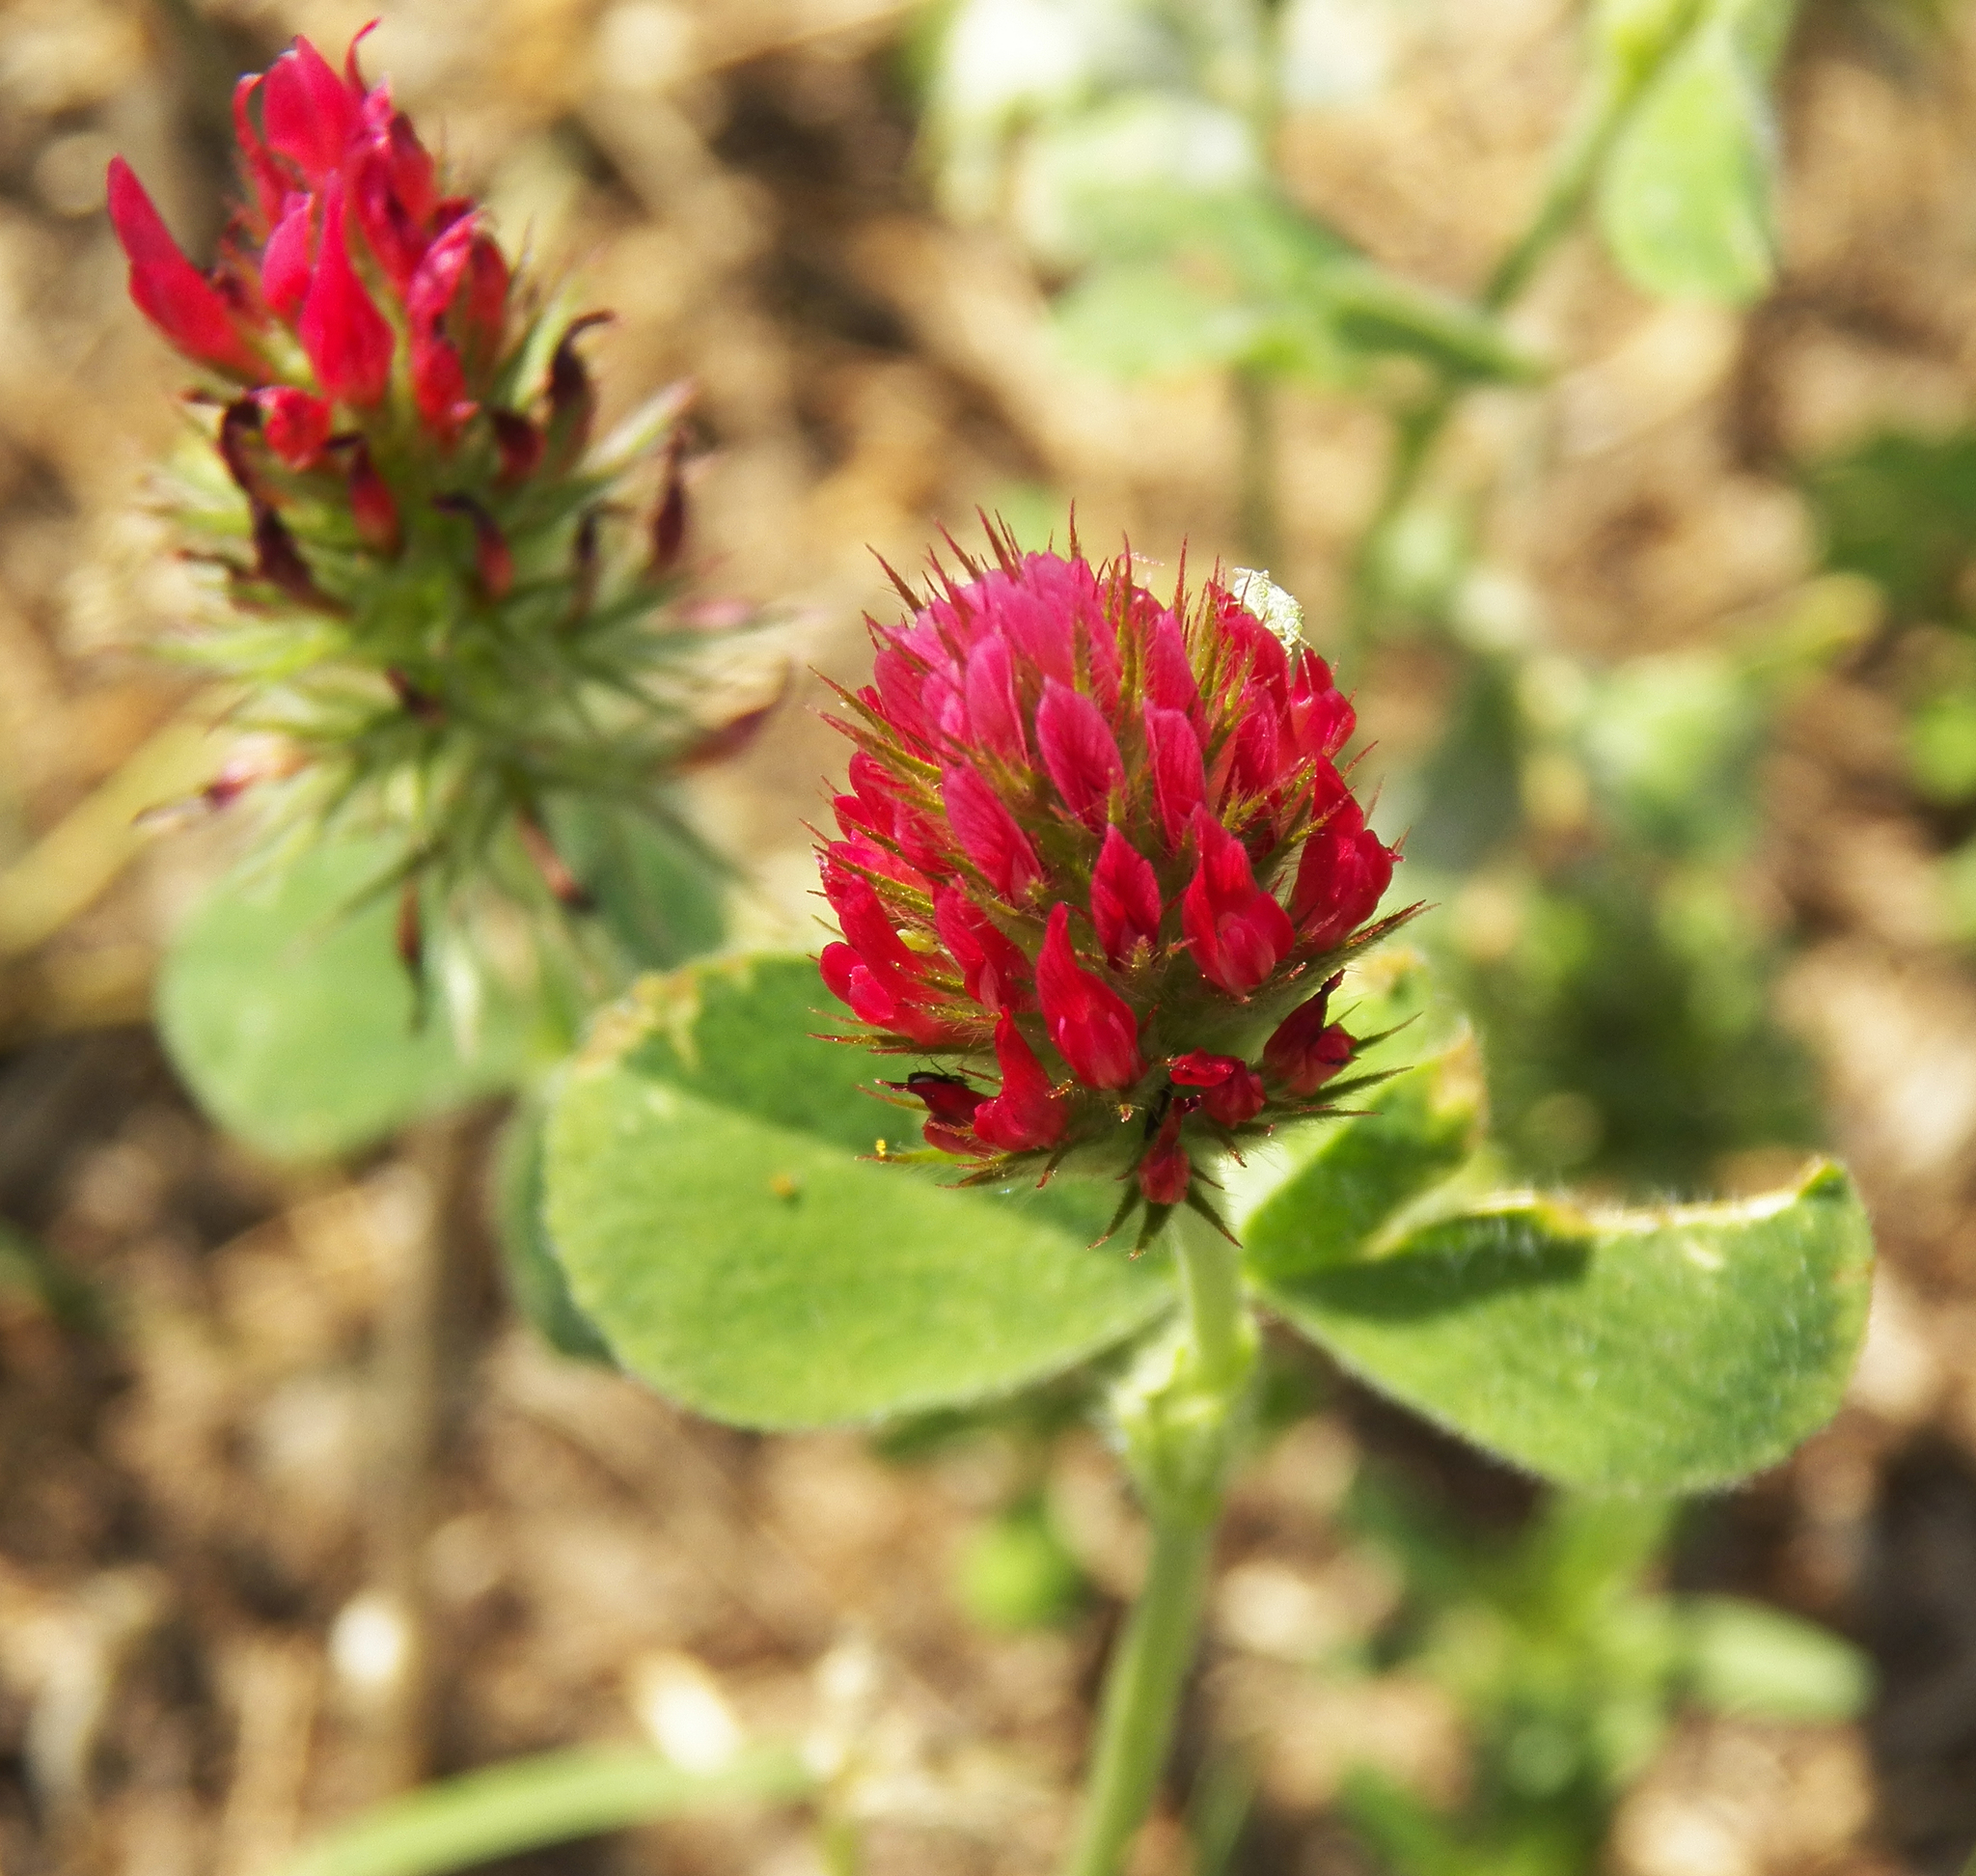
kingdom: Plantae
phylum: Tracheophyta
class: Magnoliopsida
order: Fabales
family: Fabaceae
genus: Trifolium
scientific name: Trifolium incarnatum
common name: Crimson clover
